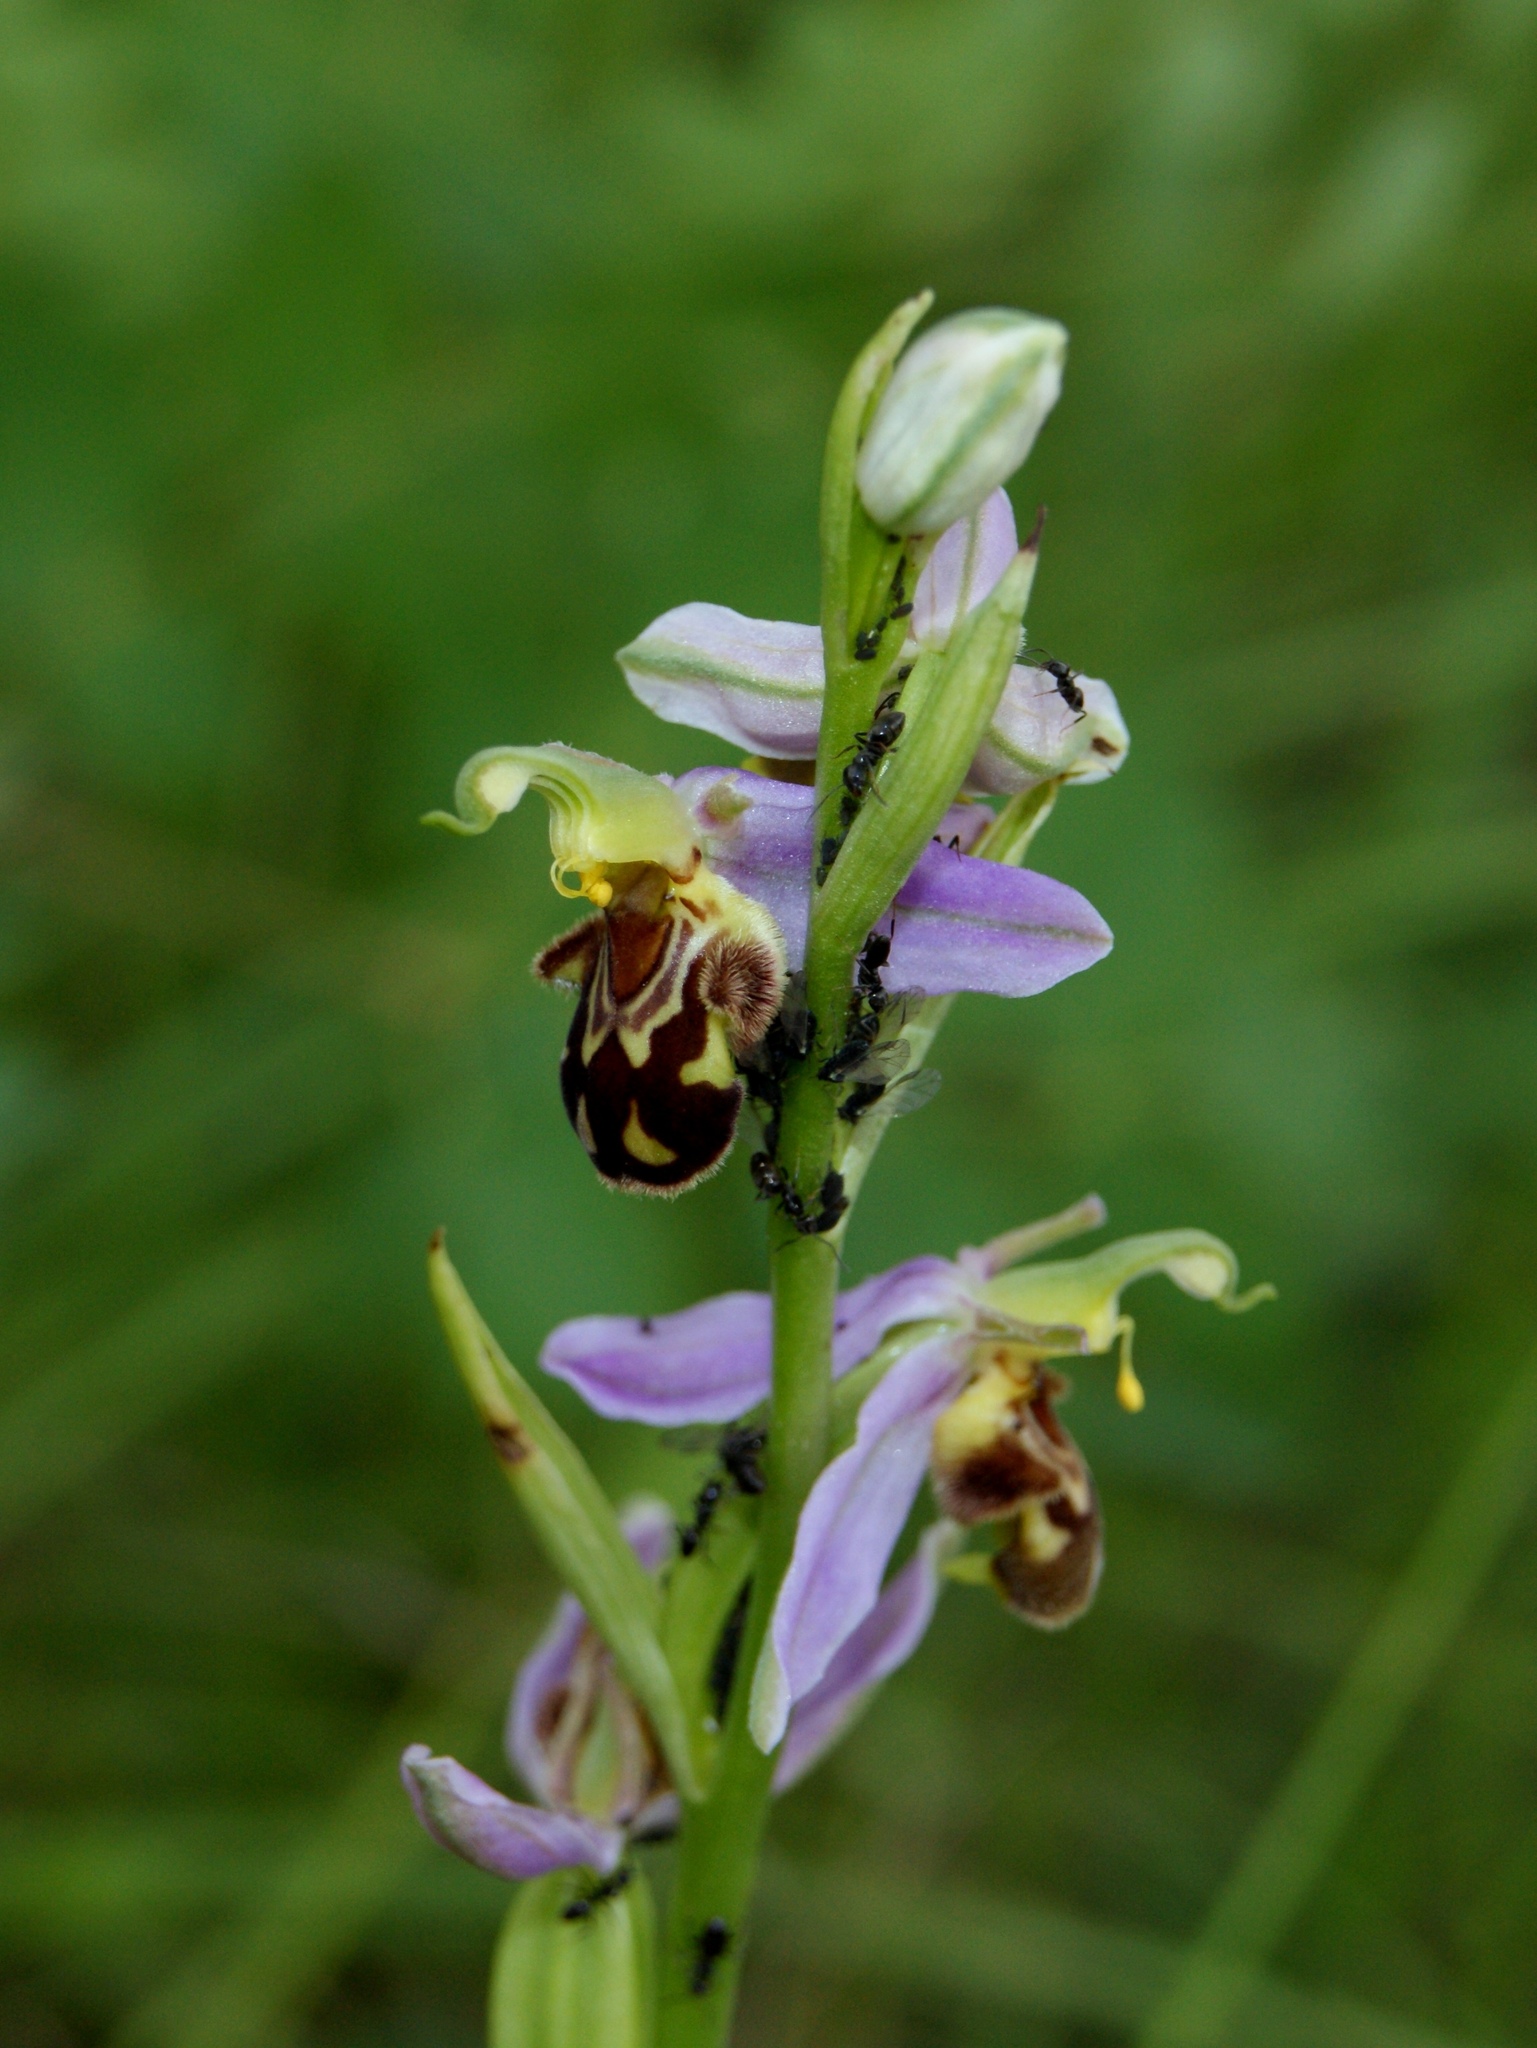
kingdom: Plantae
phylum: Tracheophyta
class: Liliopsida
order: Asparagales
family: Orchidaceae
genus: Ophrys
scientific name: Ophrys apifera
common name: Bee orchid
